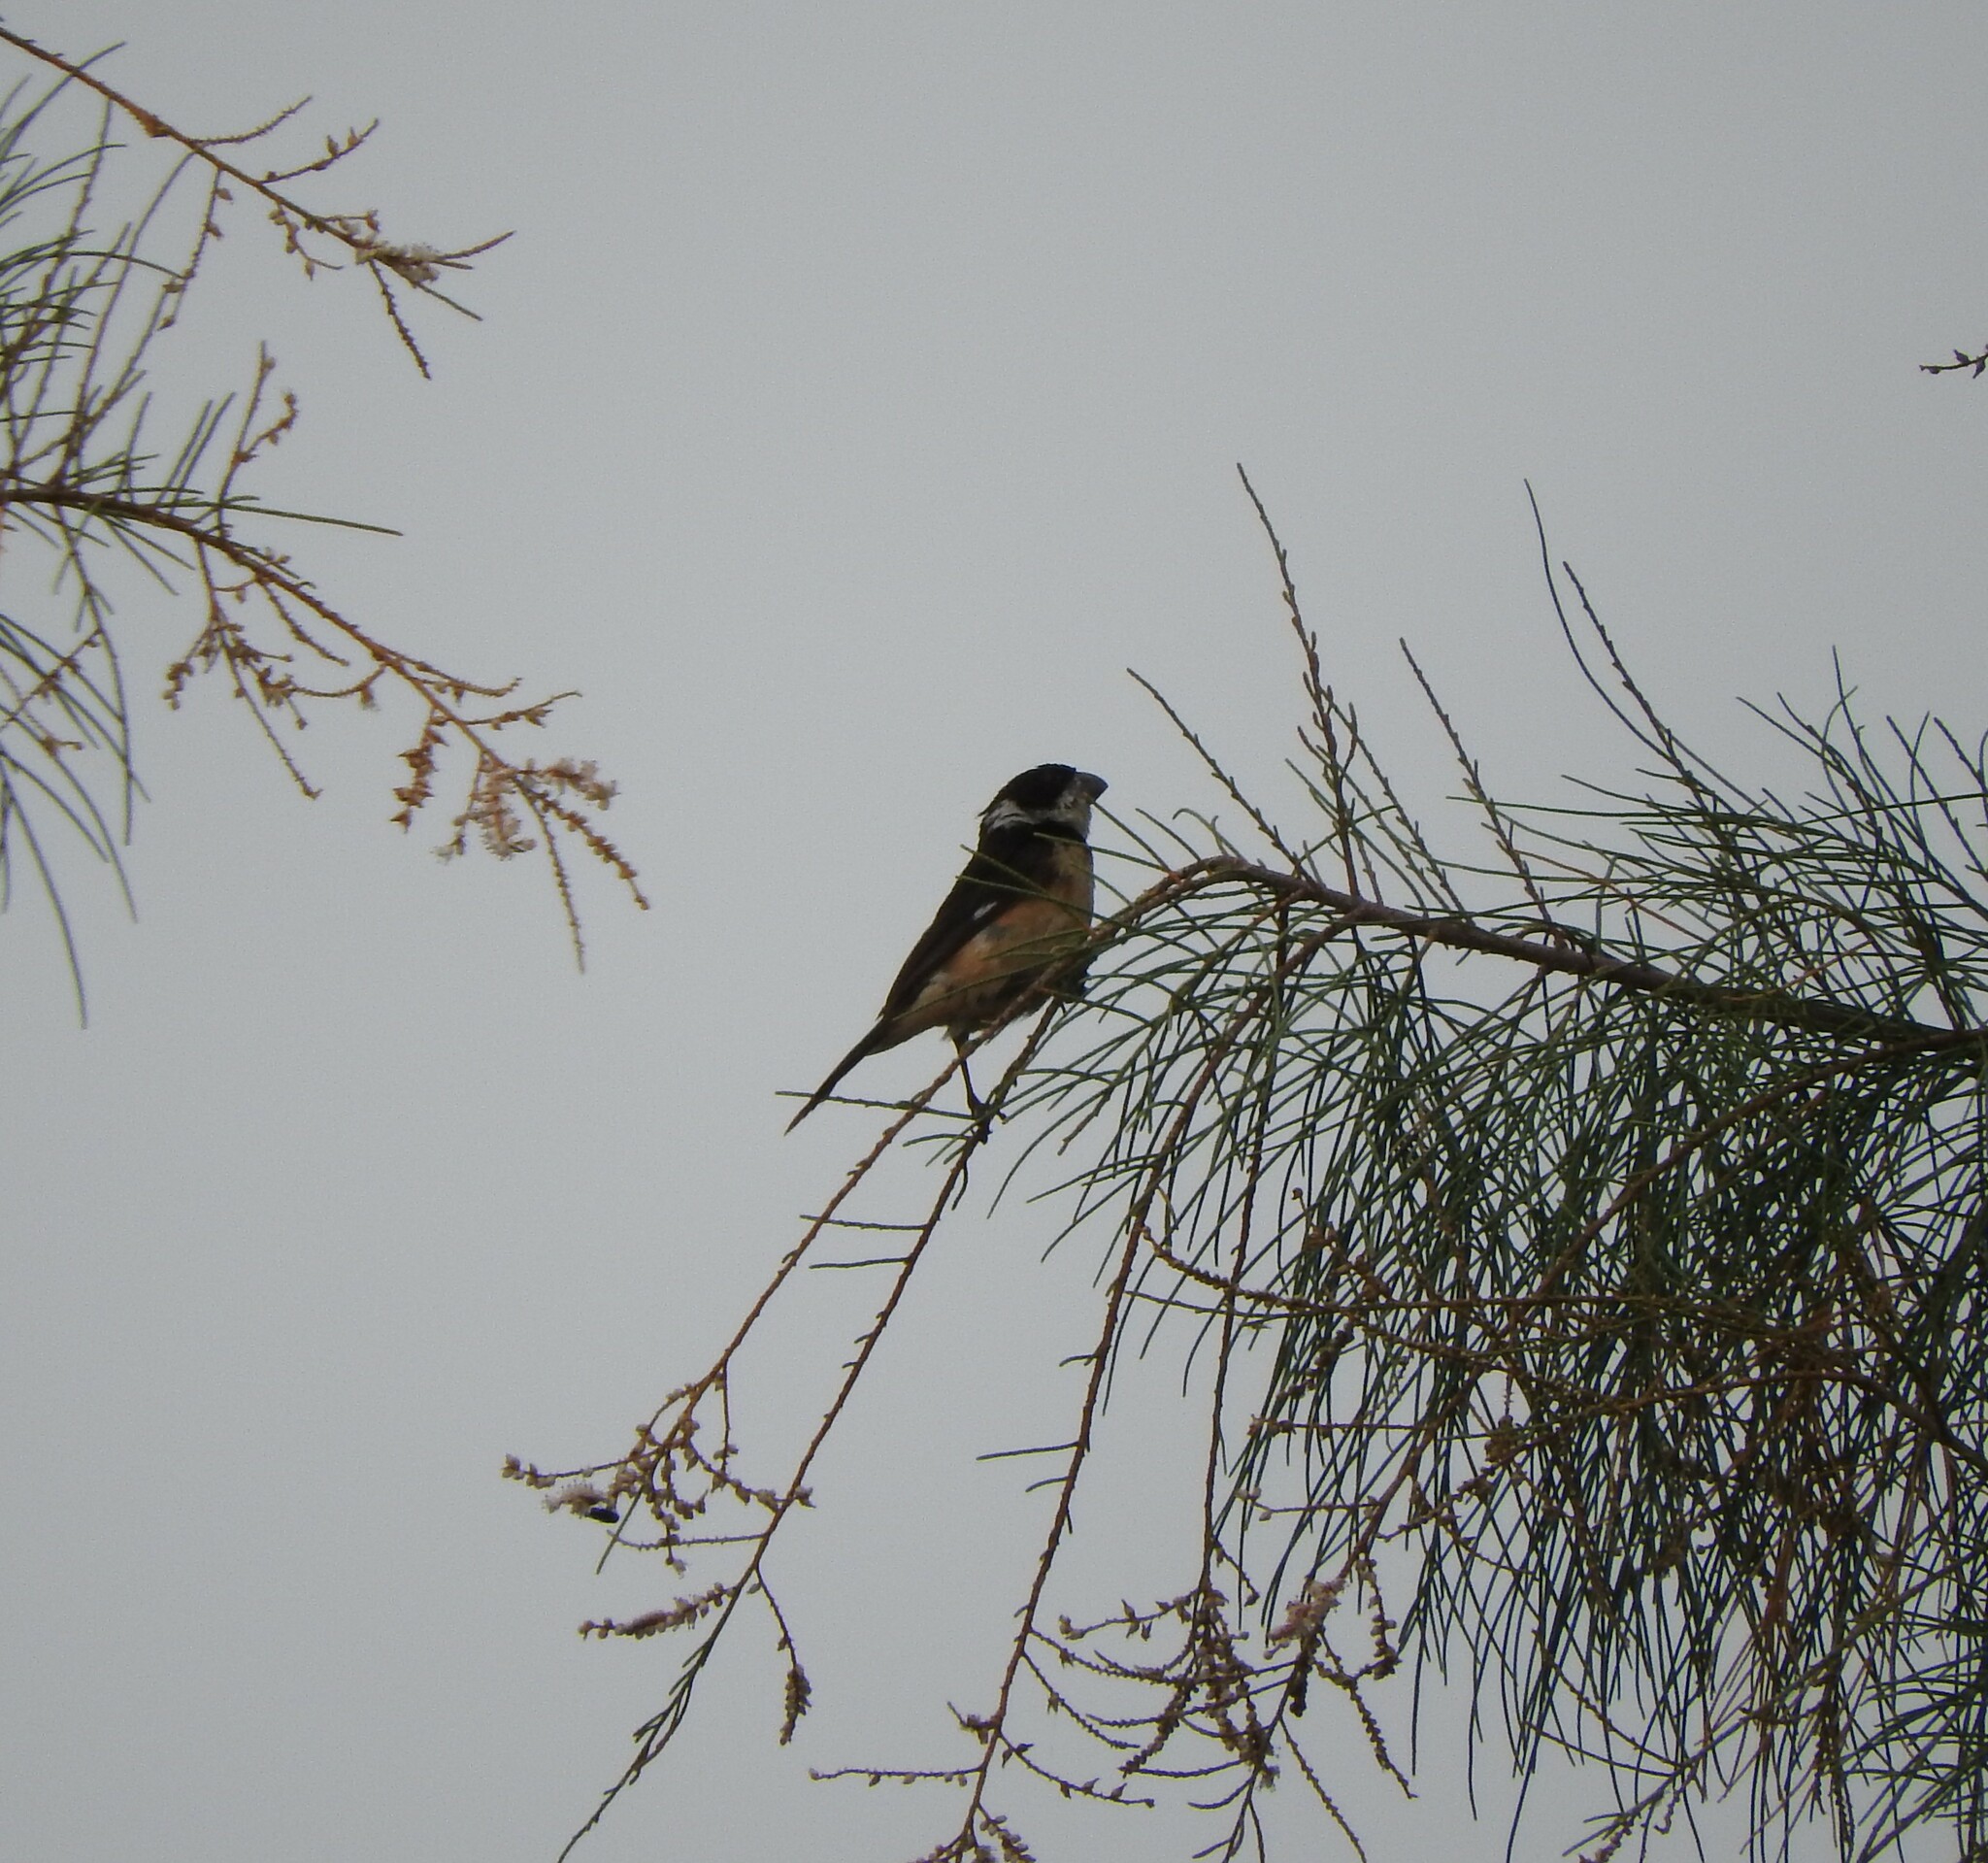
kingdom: Animalia
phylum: Chordata
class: Aves
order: Passeriformes
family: Thraupidae
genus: Sporophila
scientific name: Sporophila torqueola
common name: White-collared seedeater
